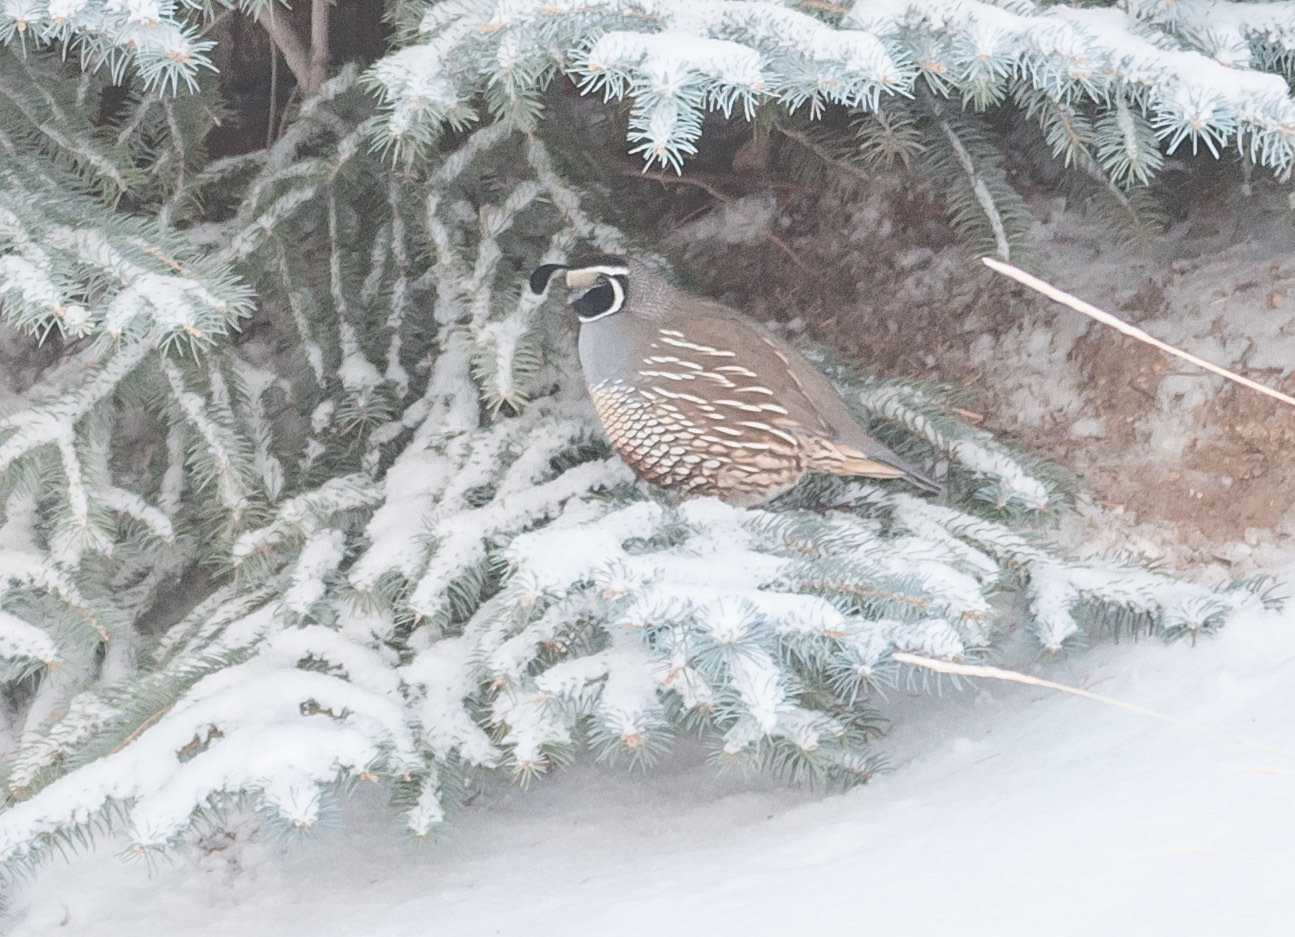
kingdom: Animalia
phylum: Chordata
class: Aves
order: Galliformes
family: Odontophoridae
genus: Callipepla
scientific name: Callipepla californica
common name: California quail
